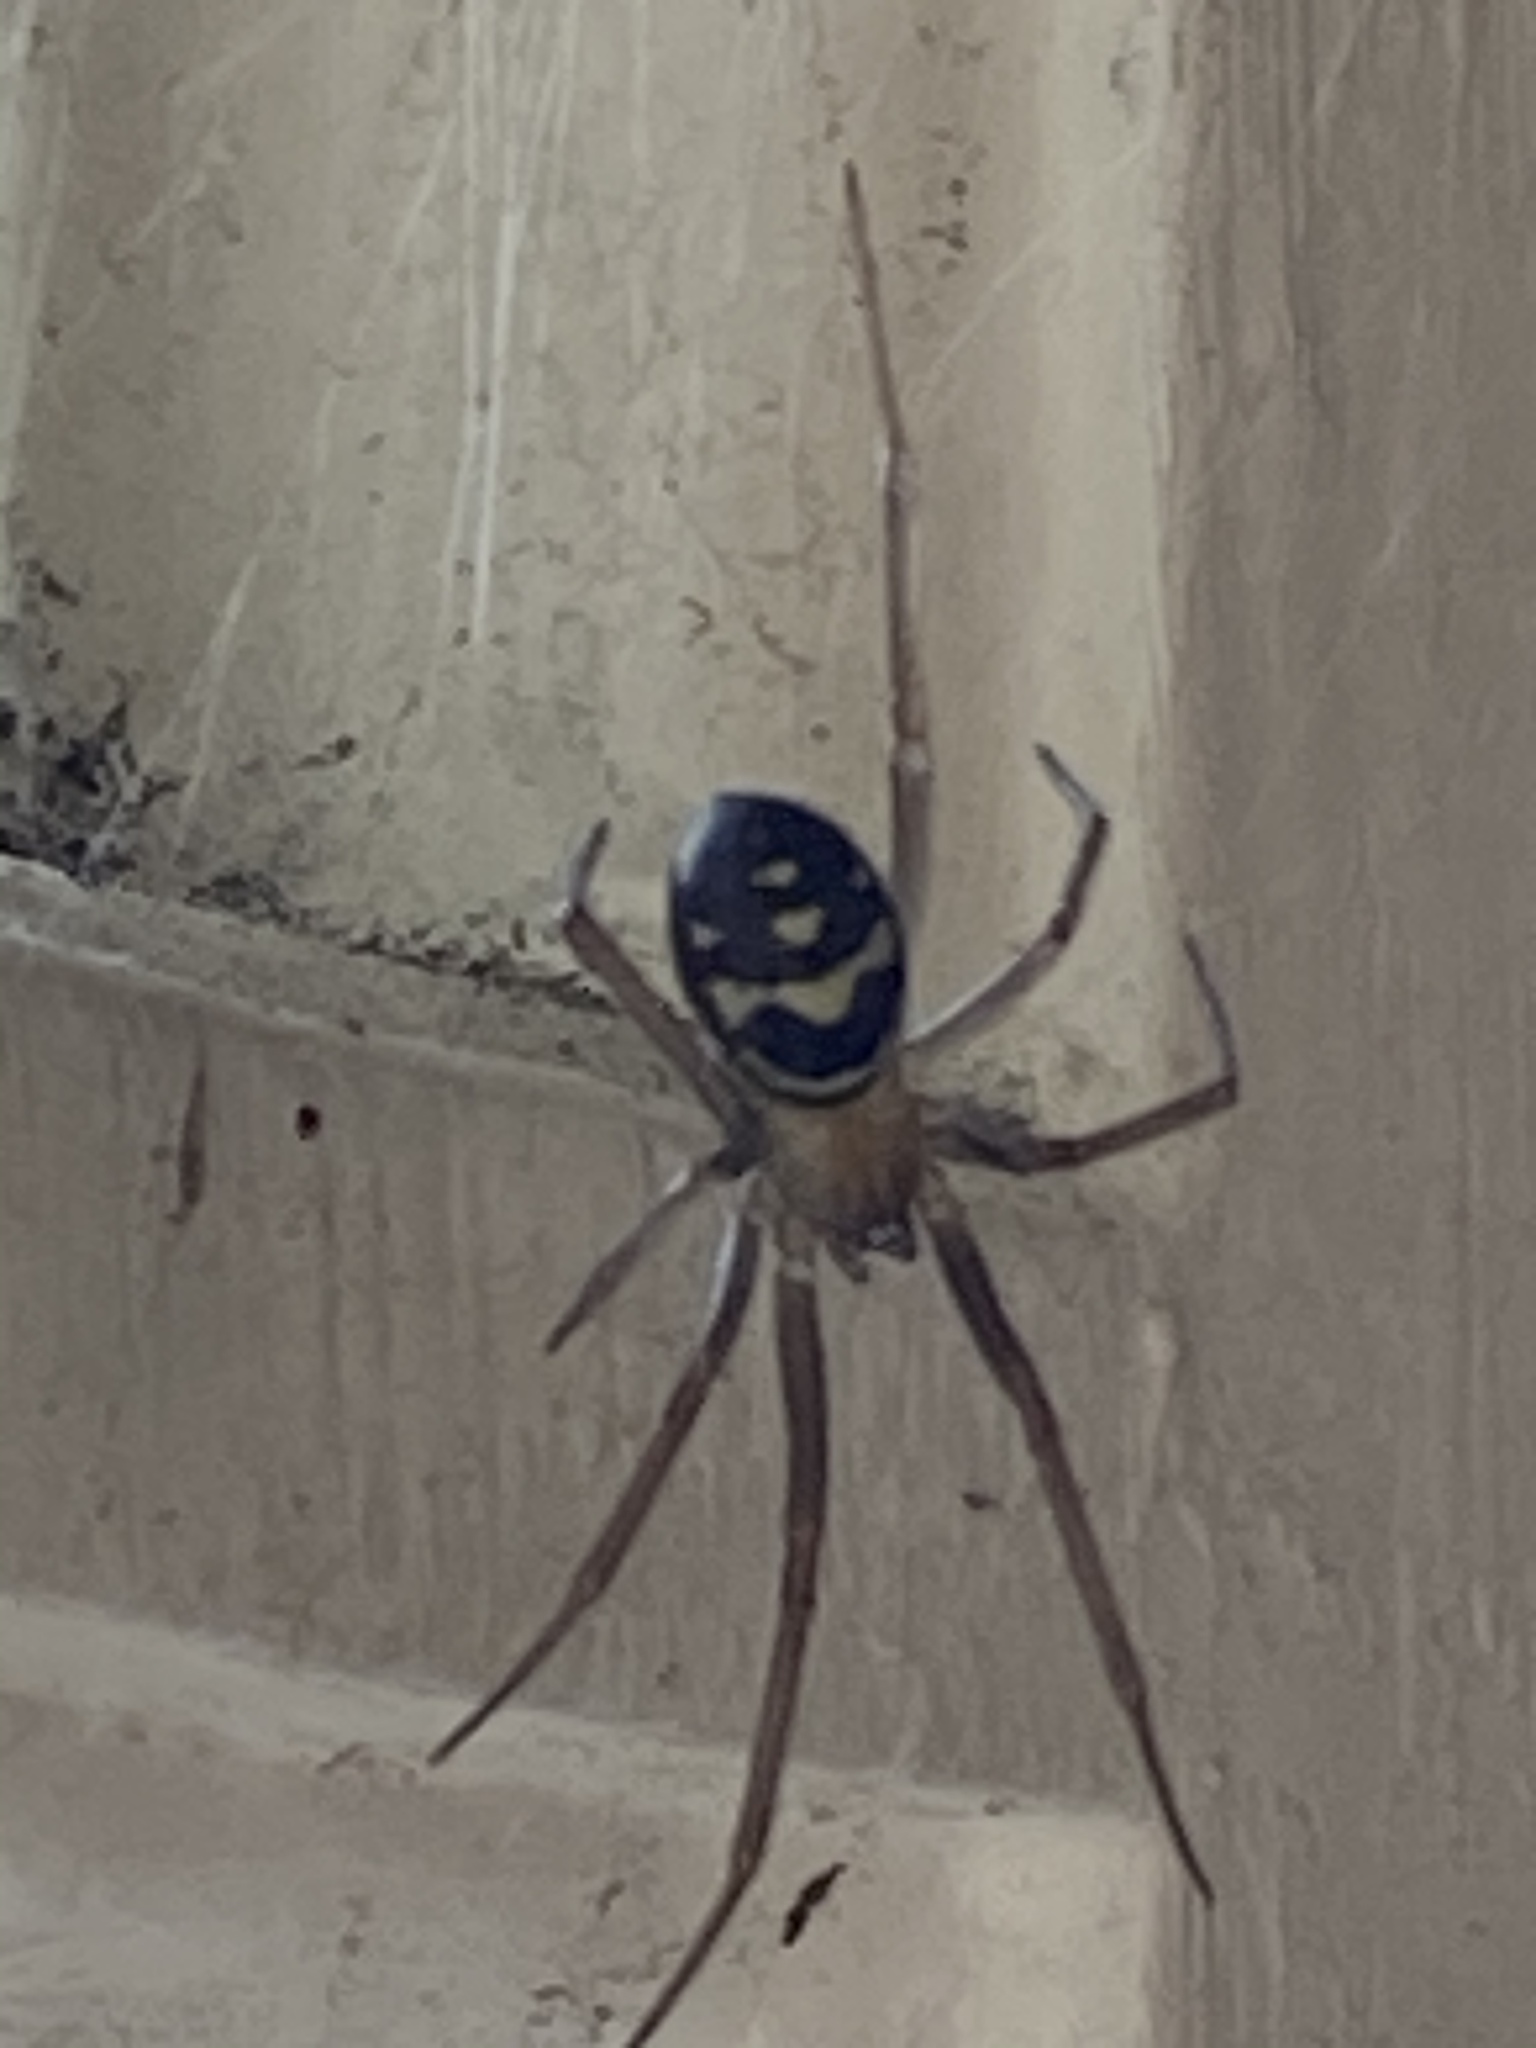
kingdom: Animalia
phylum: Arthropoda
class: Arachnida
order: Araneae
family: Theridiidae
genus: Steatoda
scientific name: Steatoda grossa
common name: False black widow
